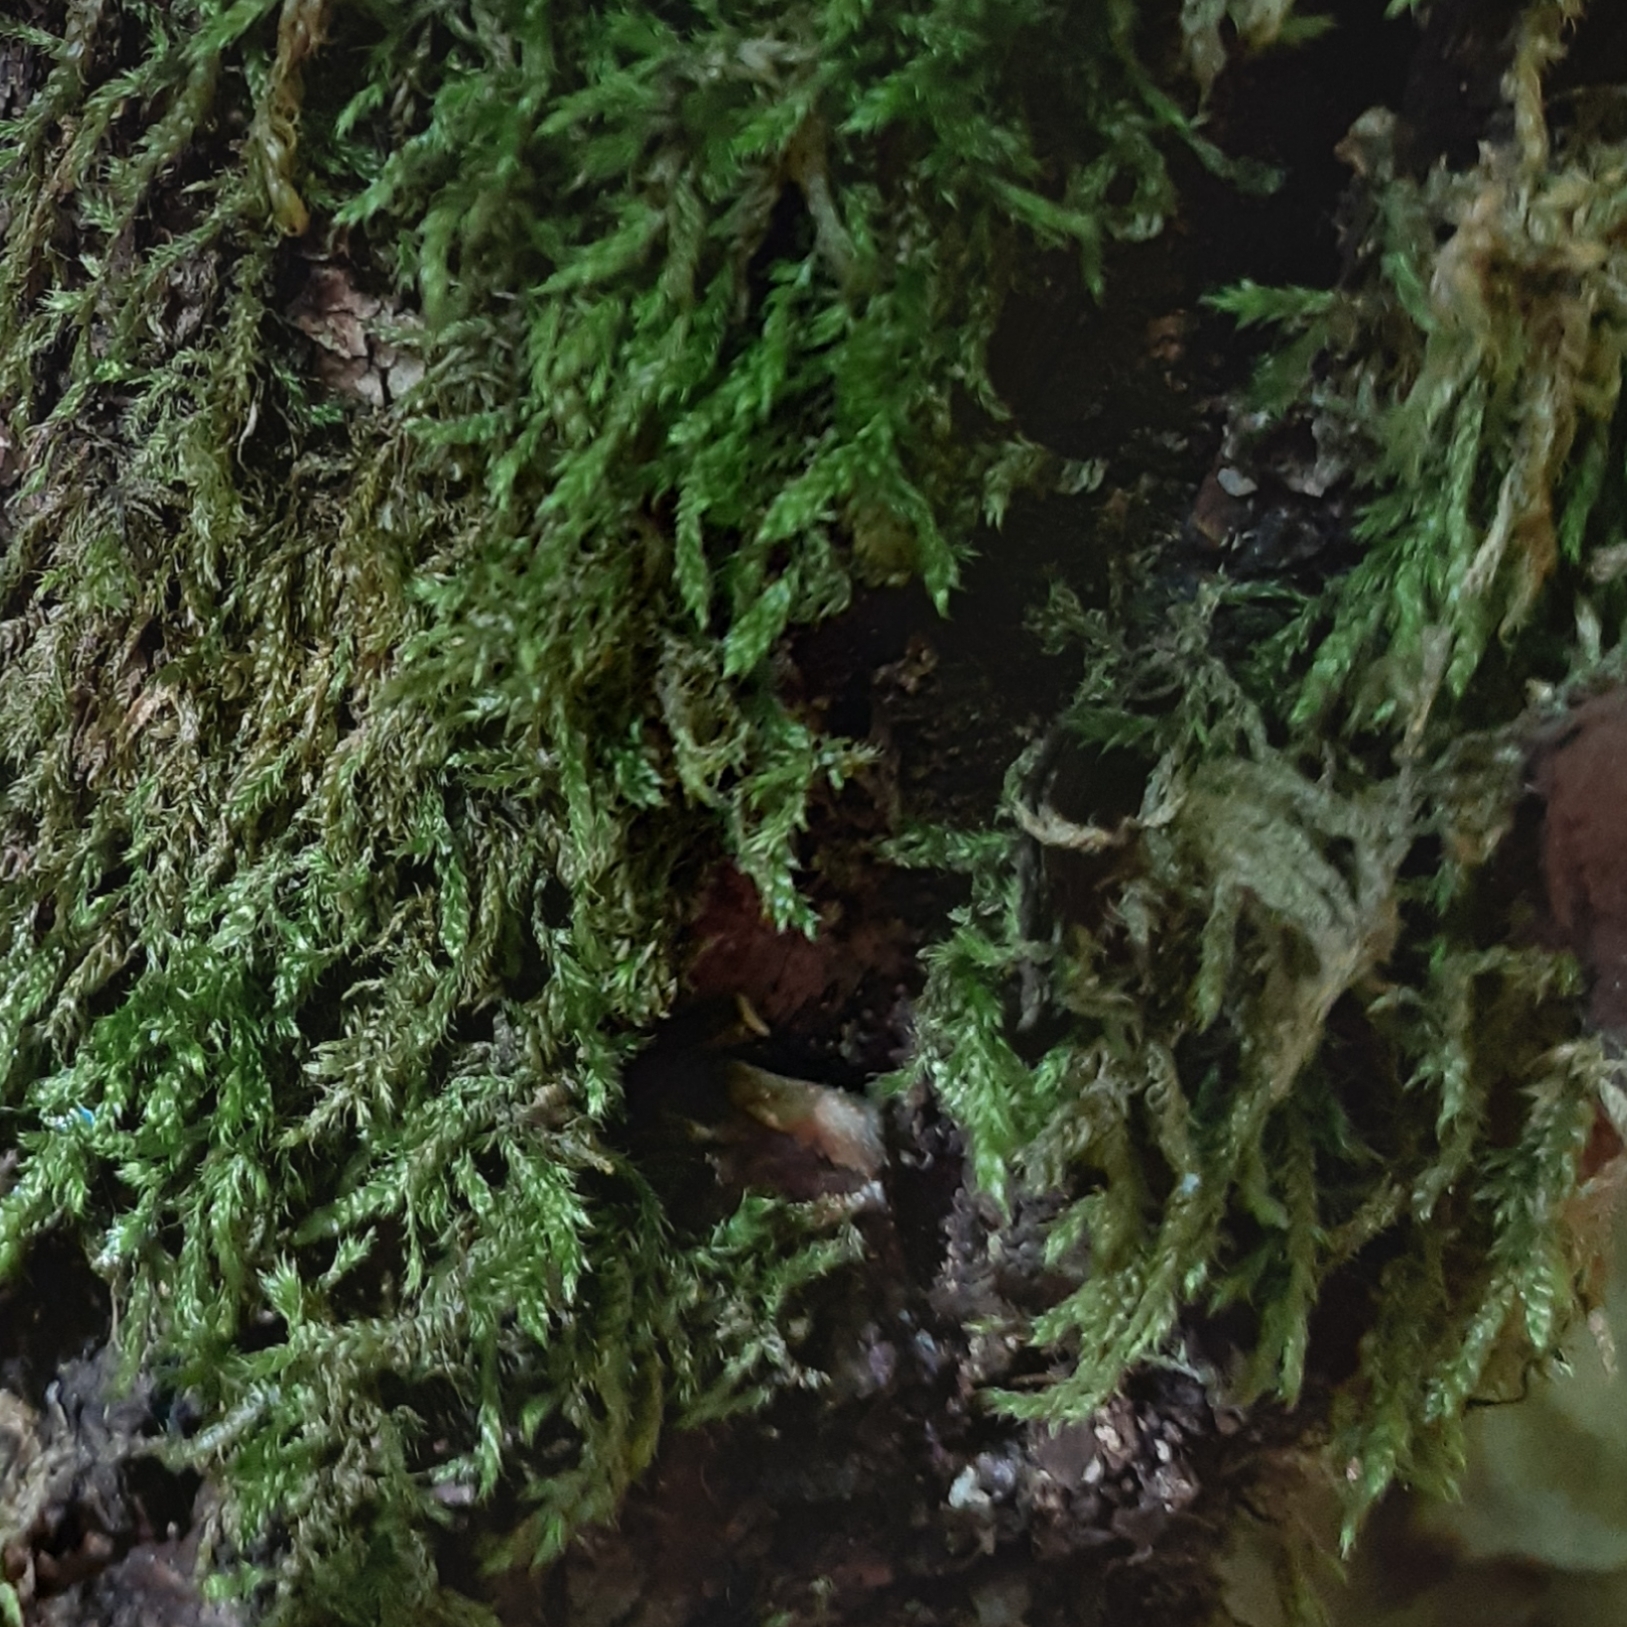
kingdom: Plantae
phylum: Bryophyta
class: Bryopsida
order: Hypnales
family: Hypnaceae
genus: Hypnum
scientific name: Hypnum cupressiforme
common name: Cypress-leaved plait-moss
